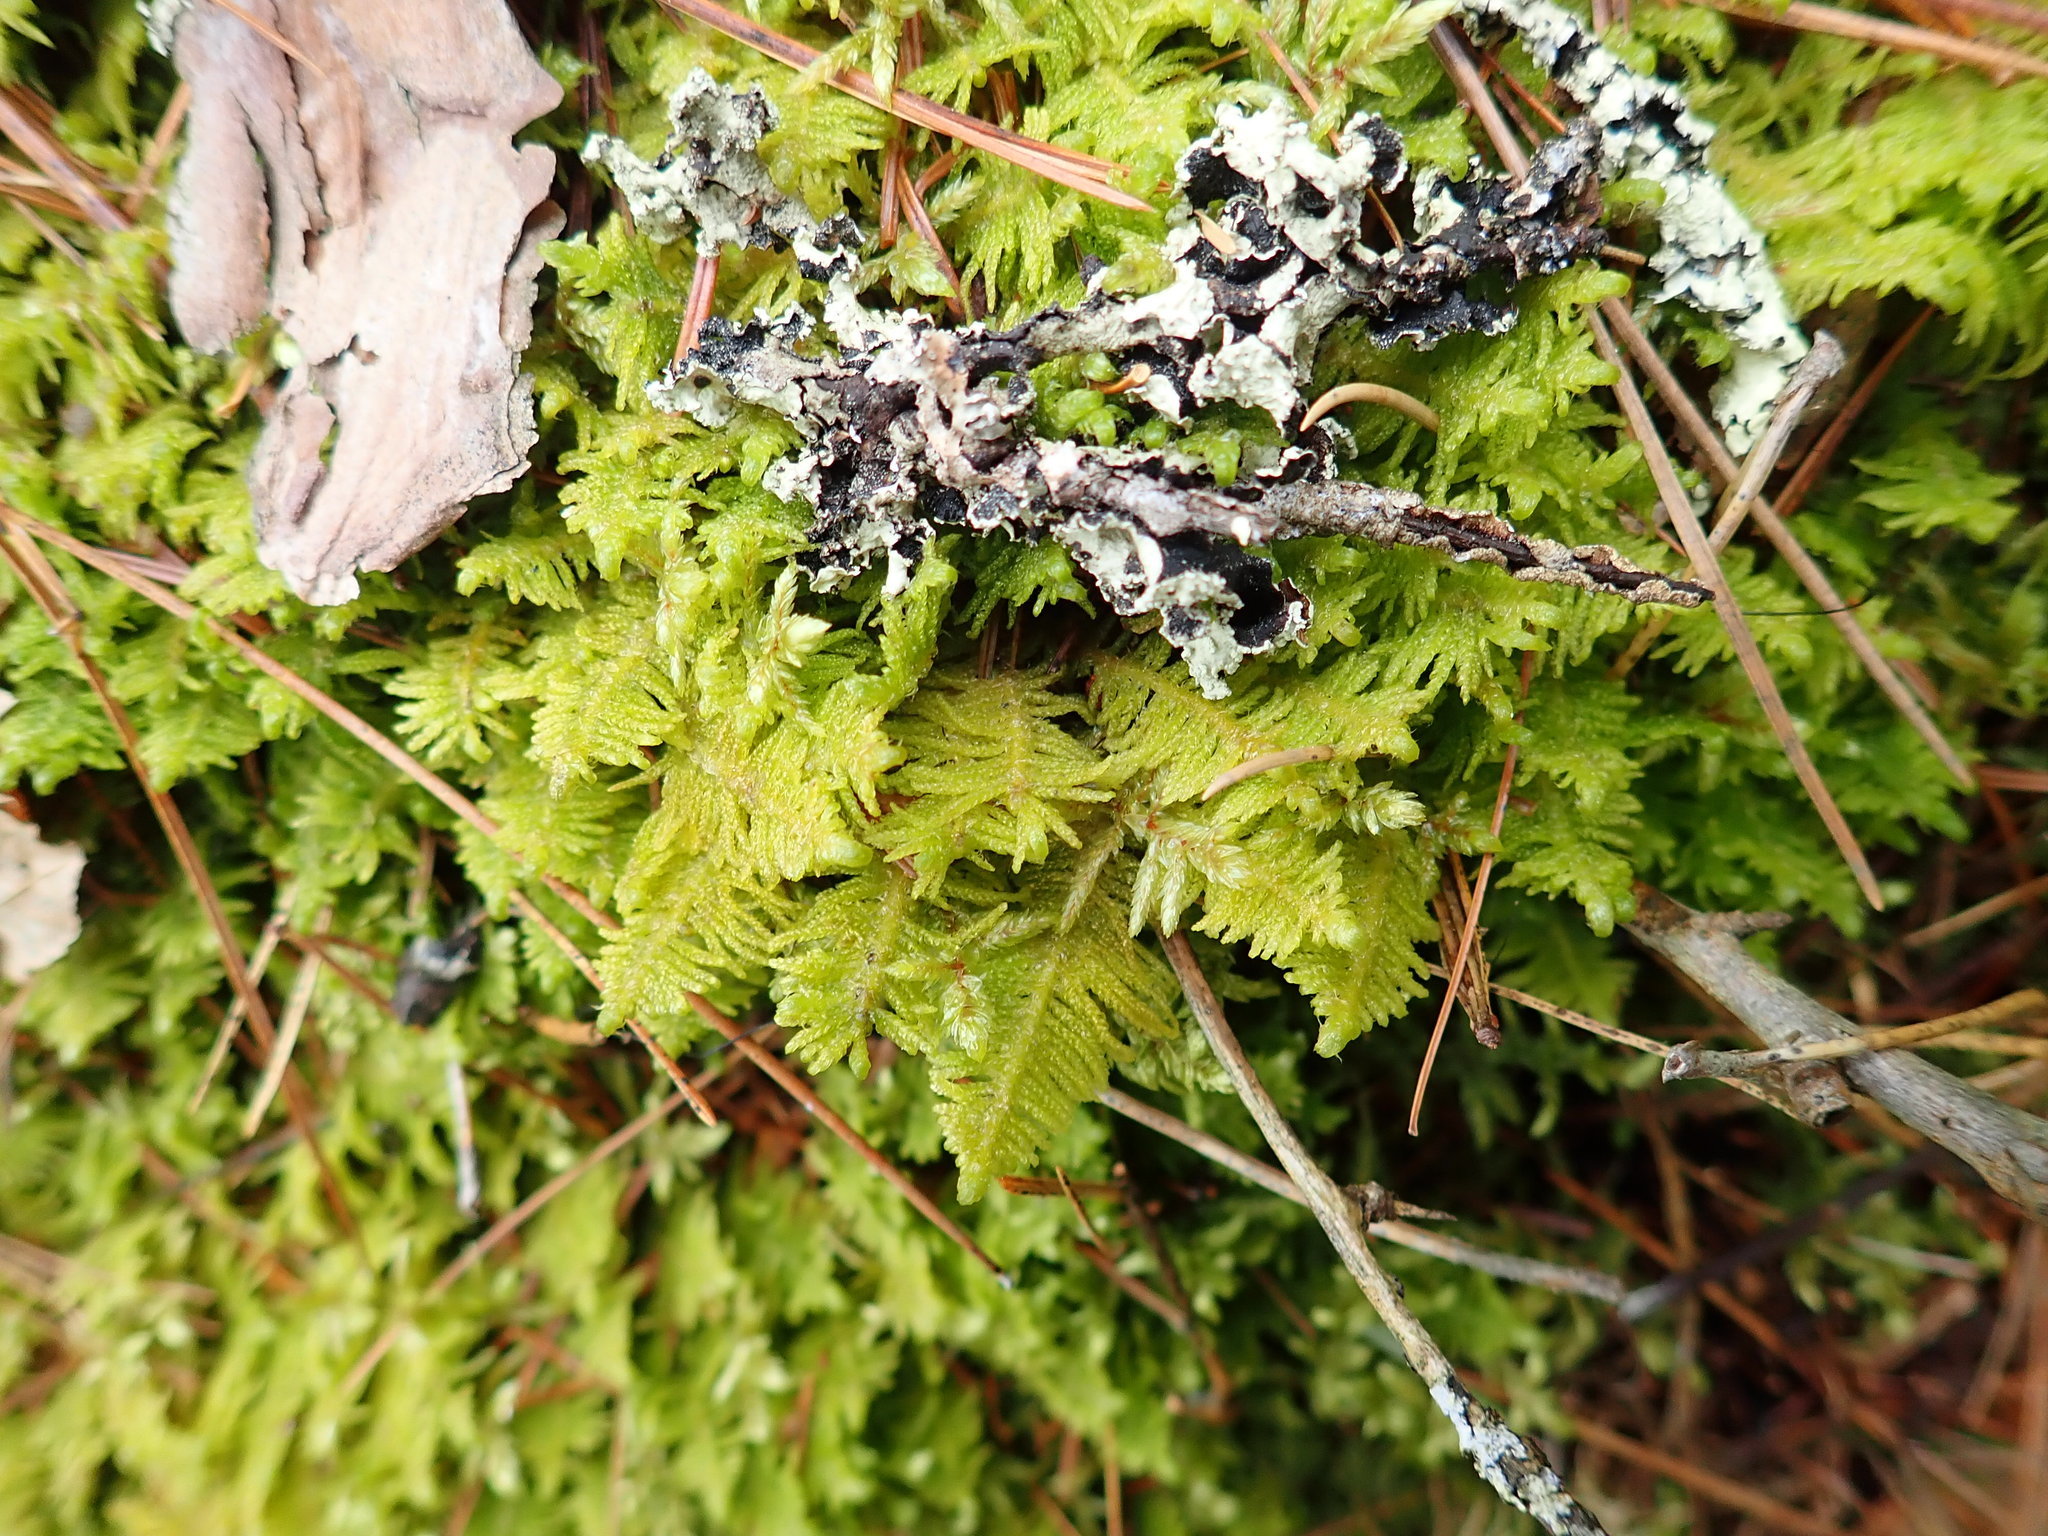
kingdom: Plantae
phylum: Bryophyta
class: Bryopsida
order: Hypnales
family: Pylaisiaceae
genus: Ptilium
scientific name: Ptilium crista-castrensis
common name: Knight's plume moss
